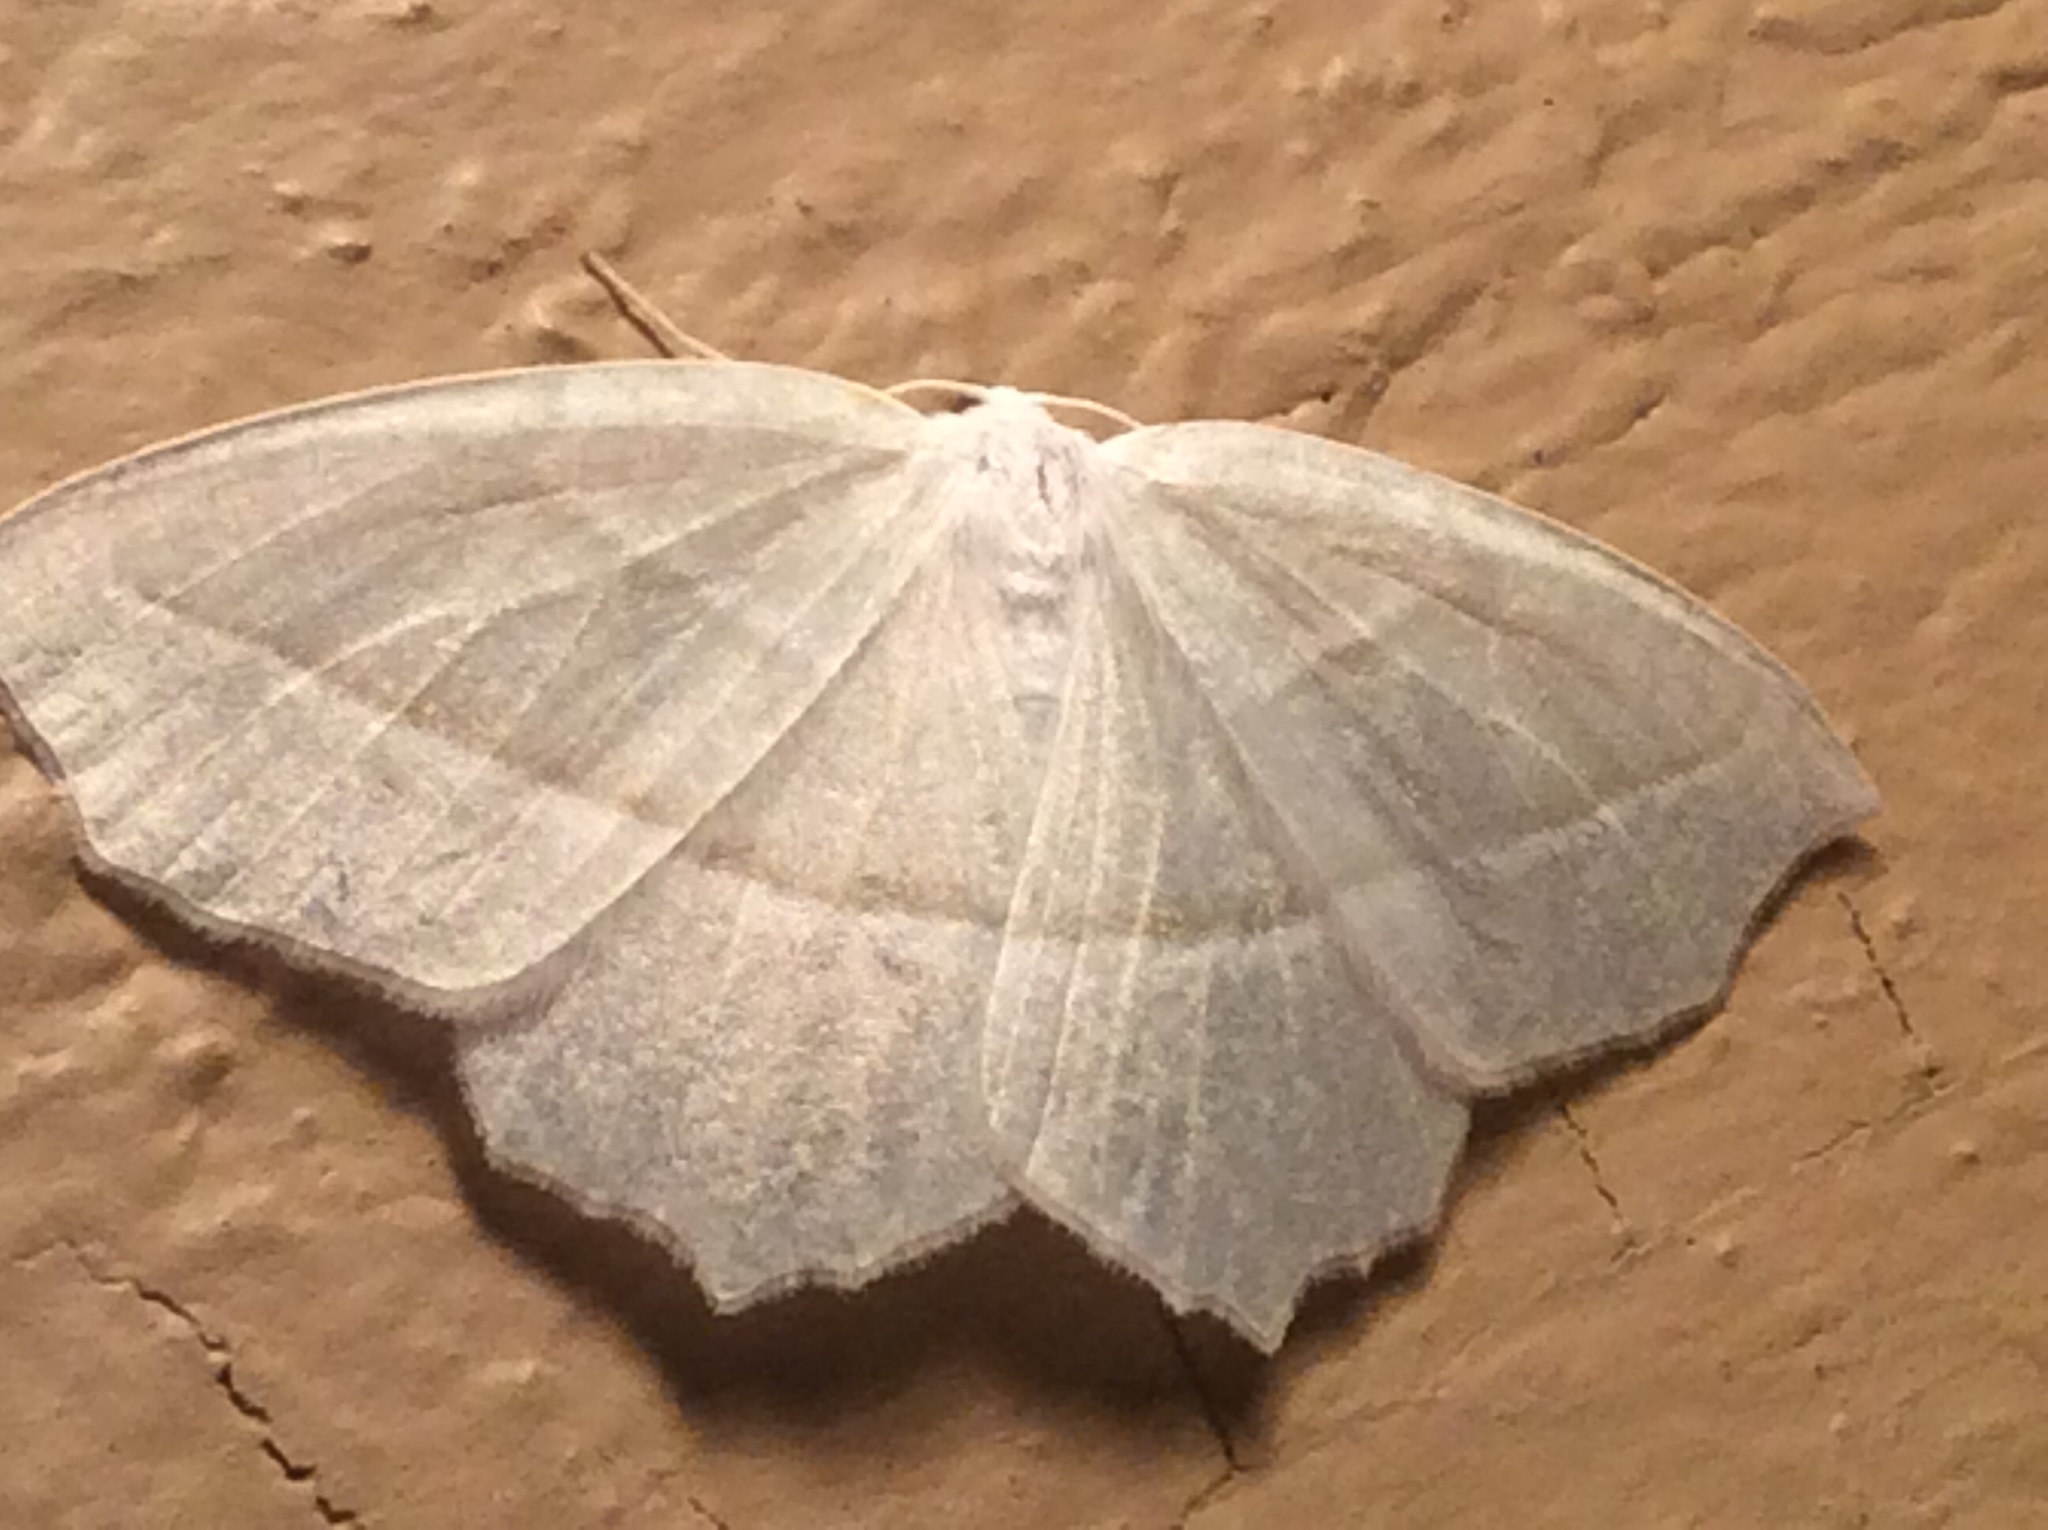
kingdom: Animalia
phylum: Arthropoda
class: Insecta
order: Lepidoptera
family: Geometridae
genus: Campaea
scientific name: Campaea perlata
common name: Fringed looper
